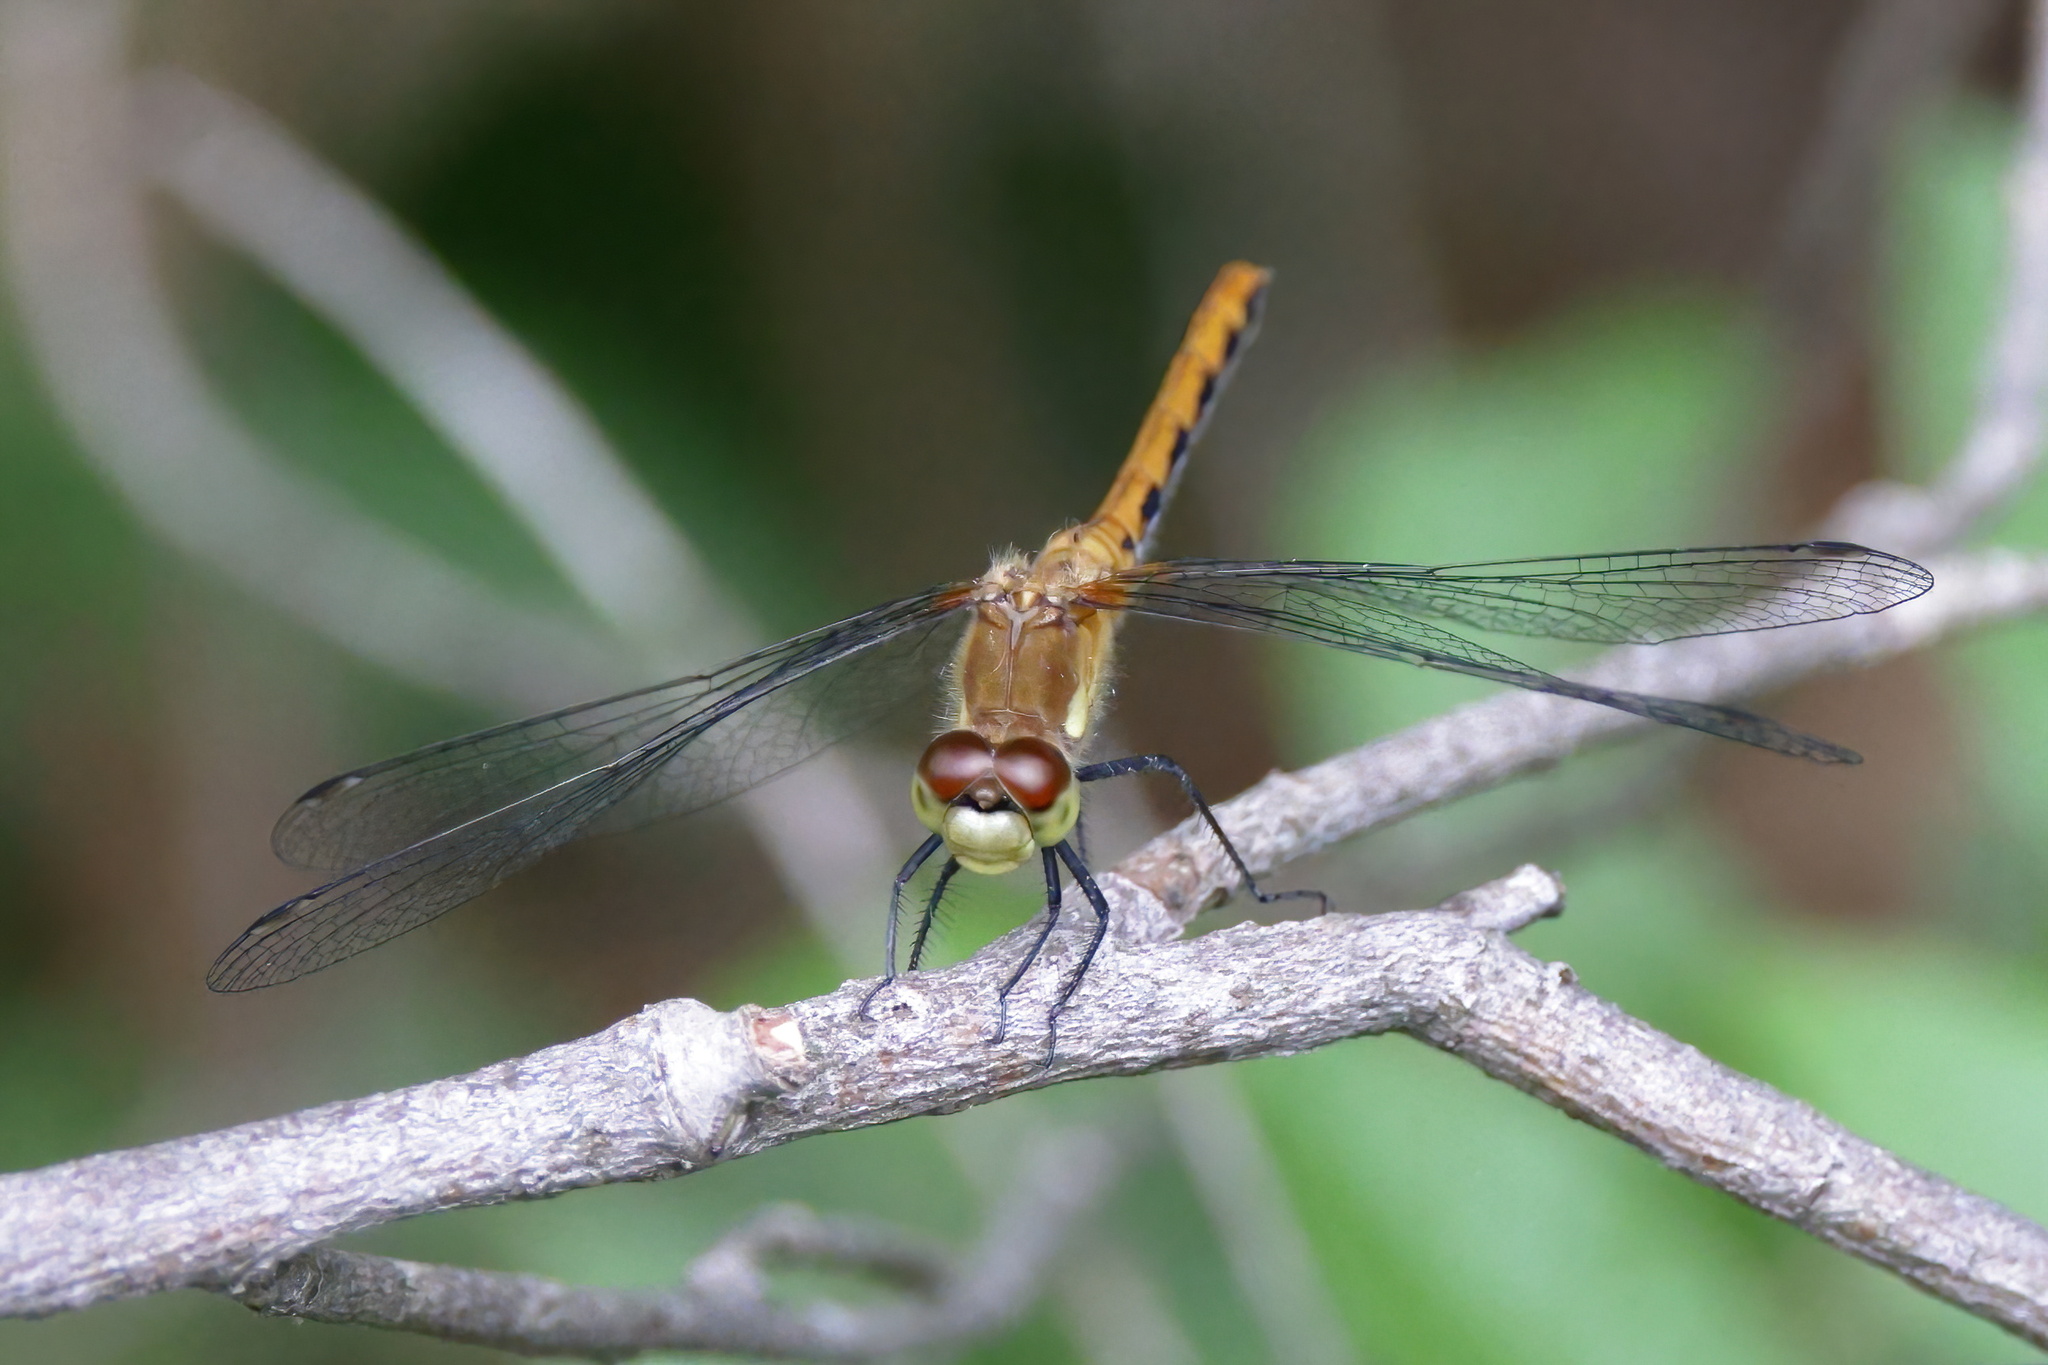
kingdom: Animalia
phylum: Arthropoda
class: Insecta
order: Odonata
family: Libellulidae
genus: Sympetrum
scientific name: Sympetrum obtrusum
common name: White-faced meadowhawk
